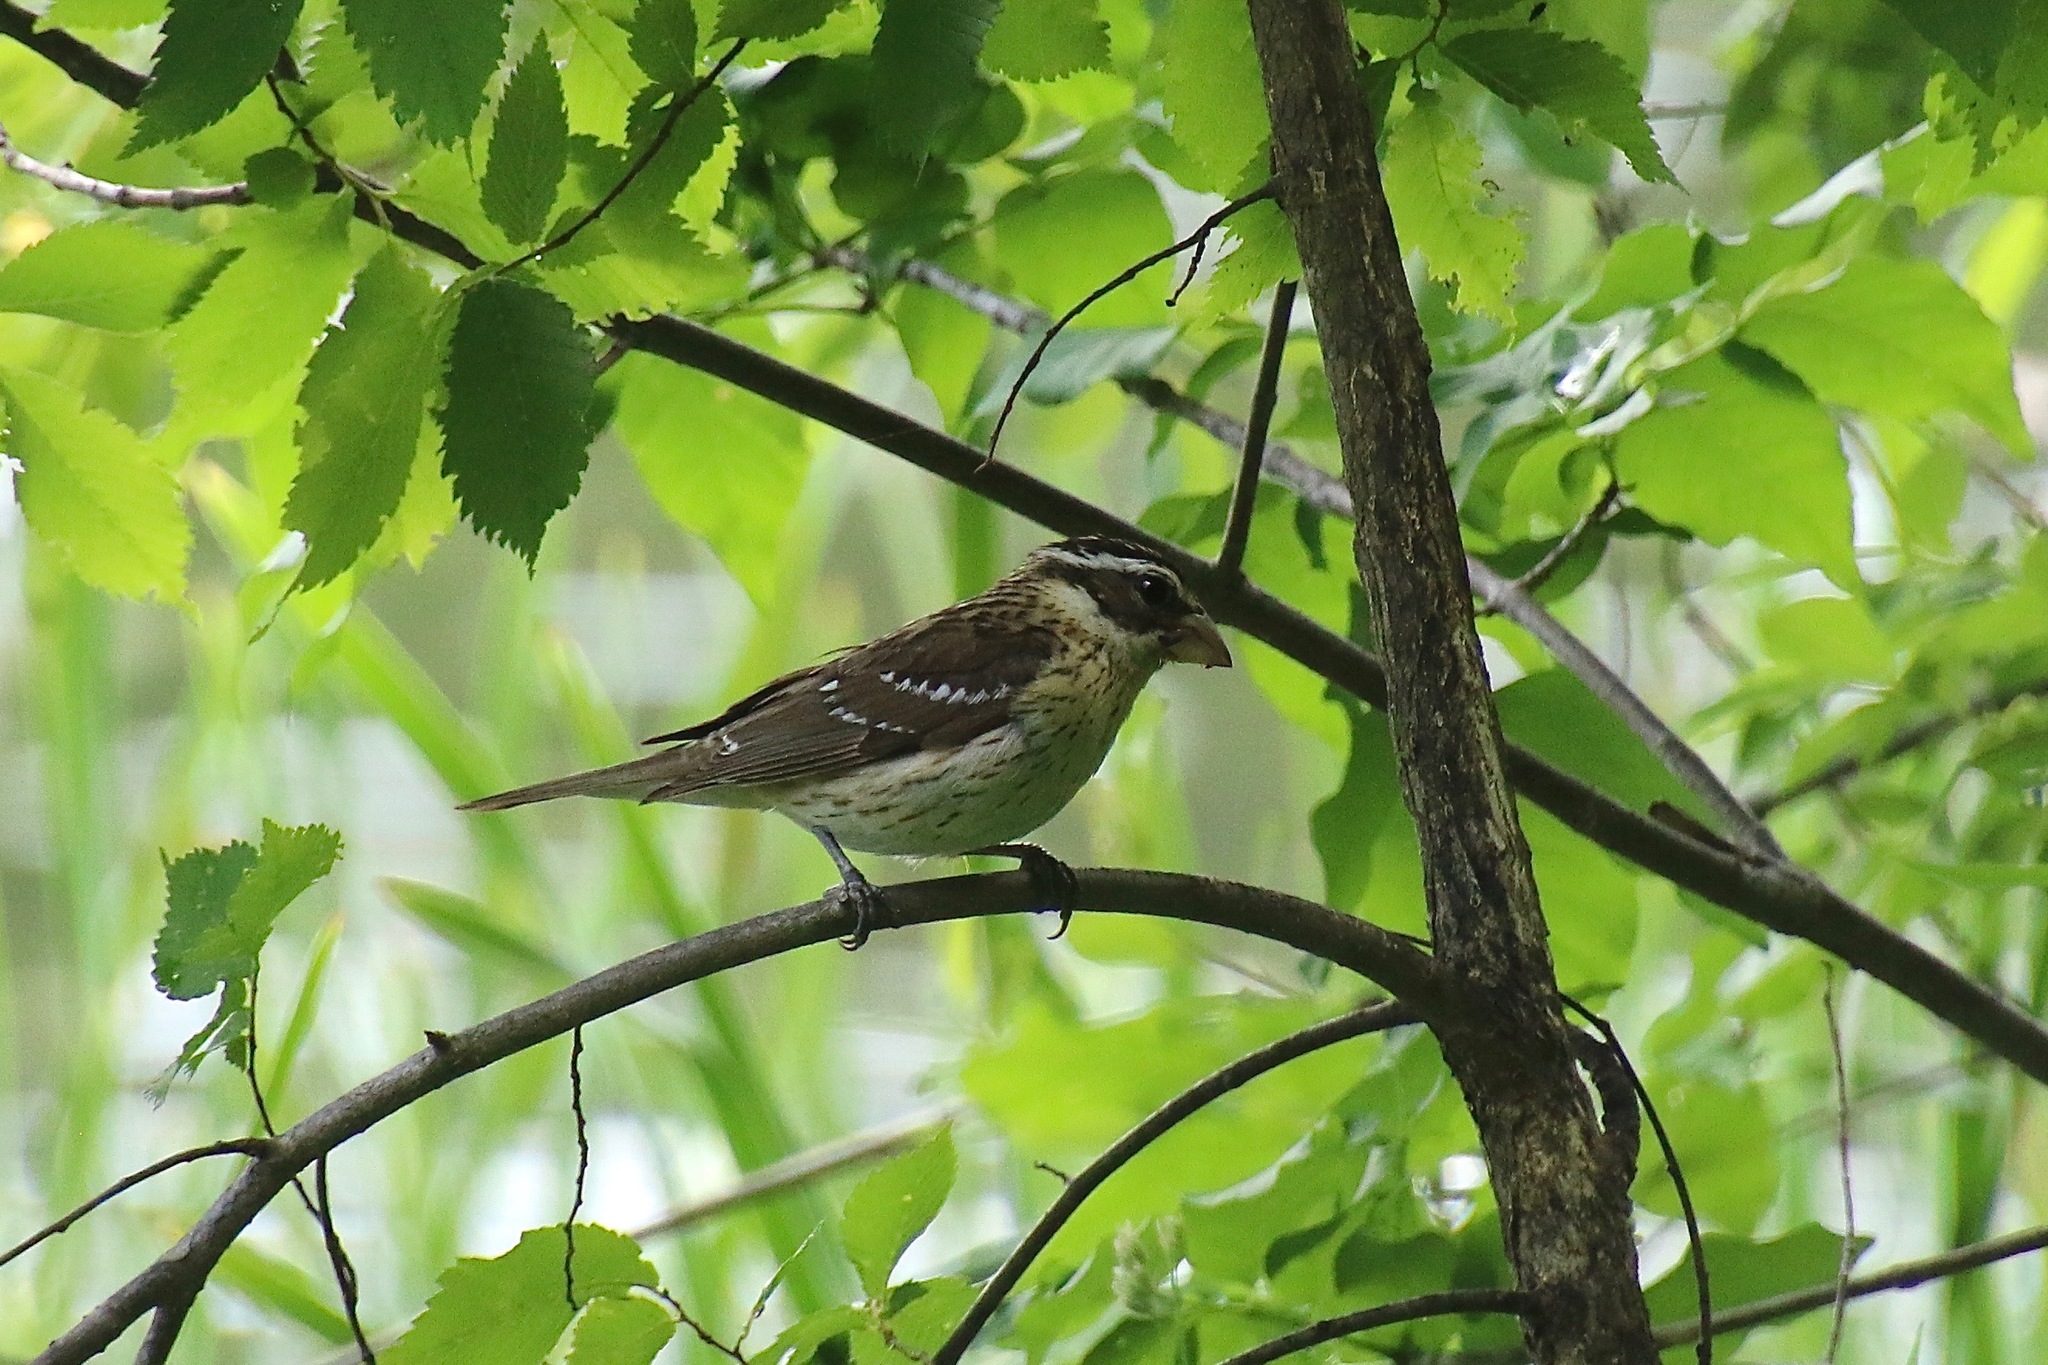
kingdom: Animalia
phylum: Chordata
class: Aves
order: Passeriformes
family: Cardinalidae
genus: Pheucticus
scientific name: Pheucticus ludovicianus
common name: Rose-breasted grosbeak
